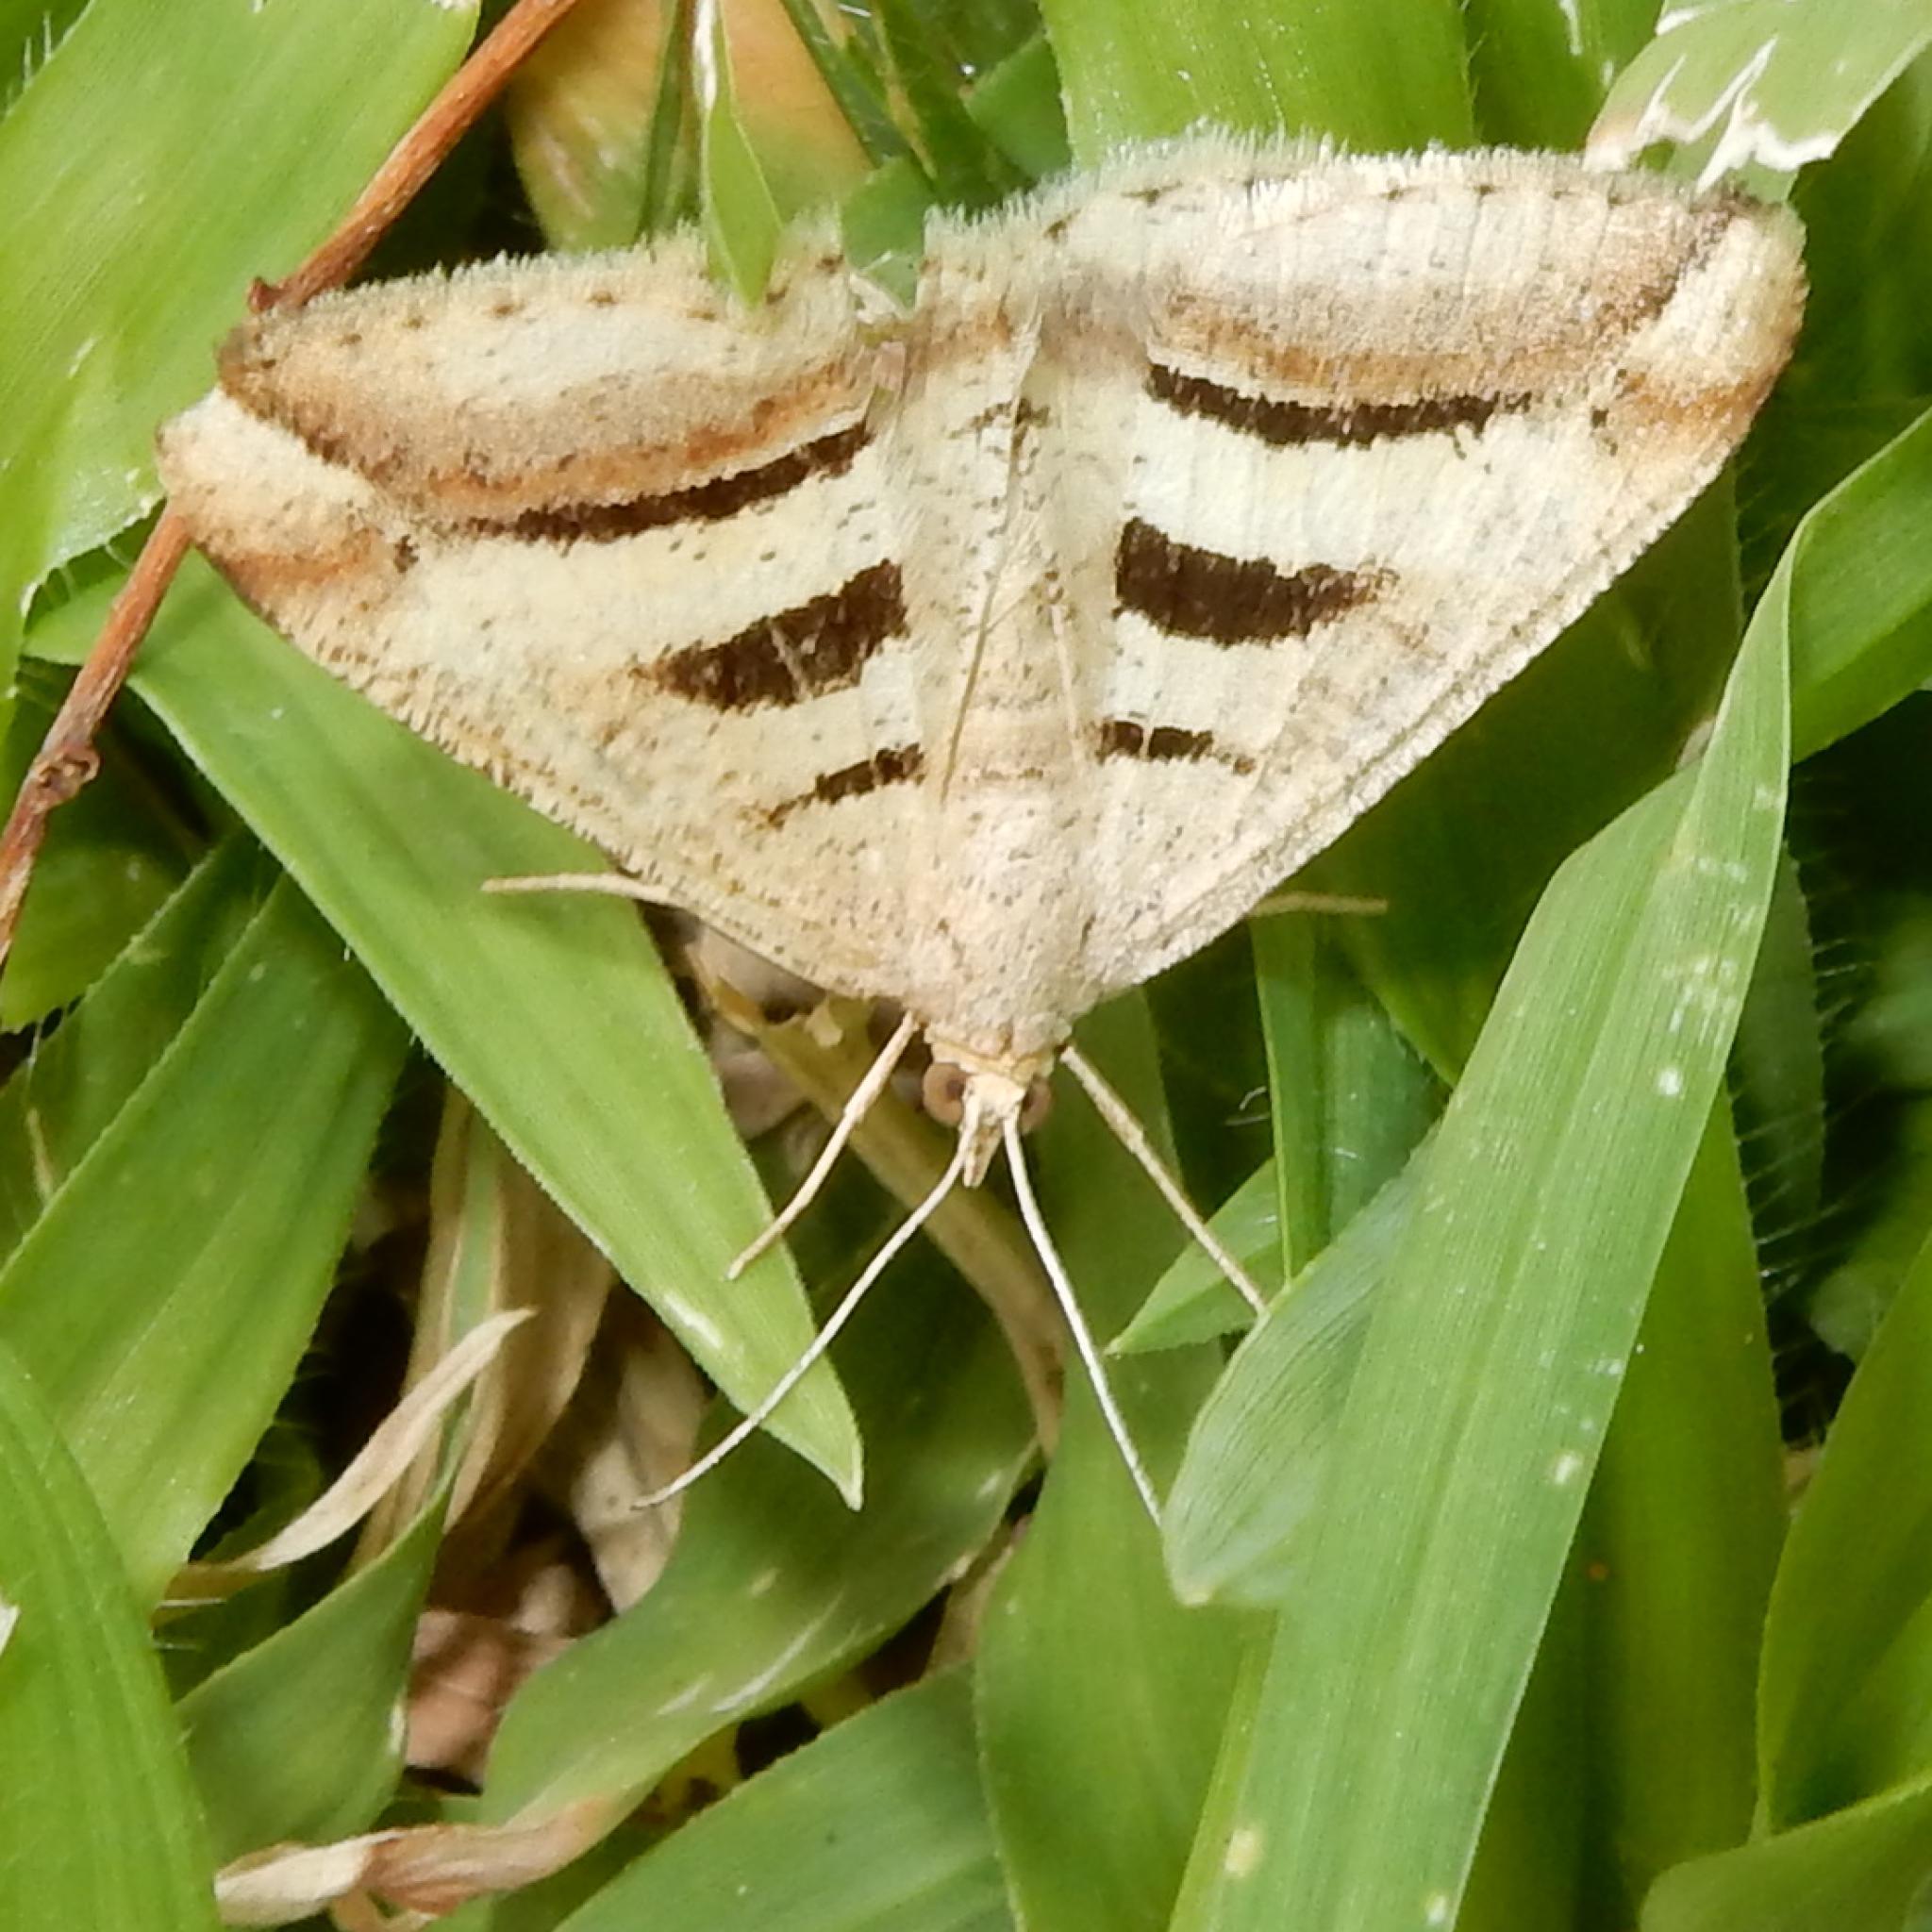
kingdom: Animalia
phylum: Arthropoda
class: Insecta
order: Lepidoptera
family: Geometridae
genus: Chiasmia
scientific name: Chiasmia subcurvaria
